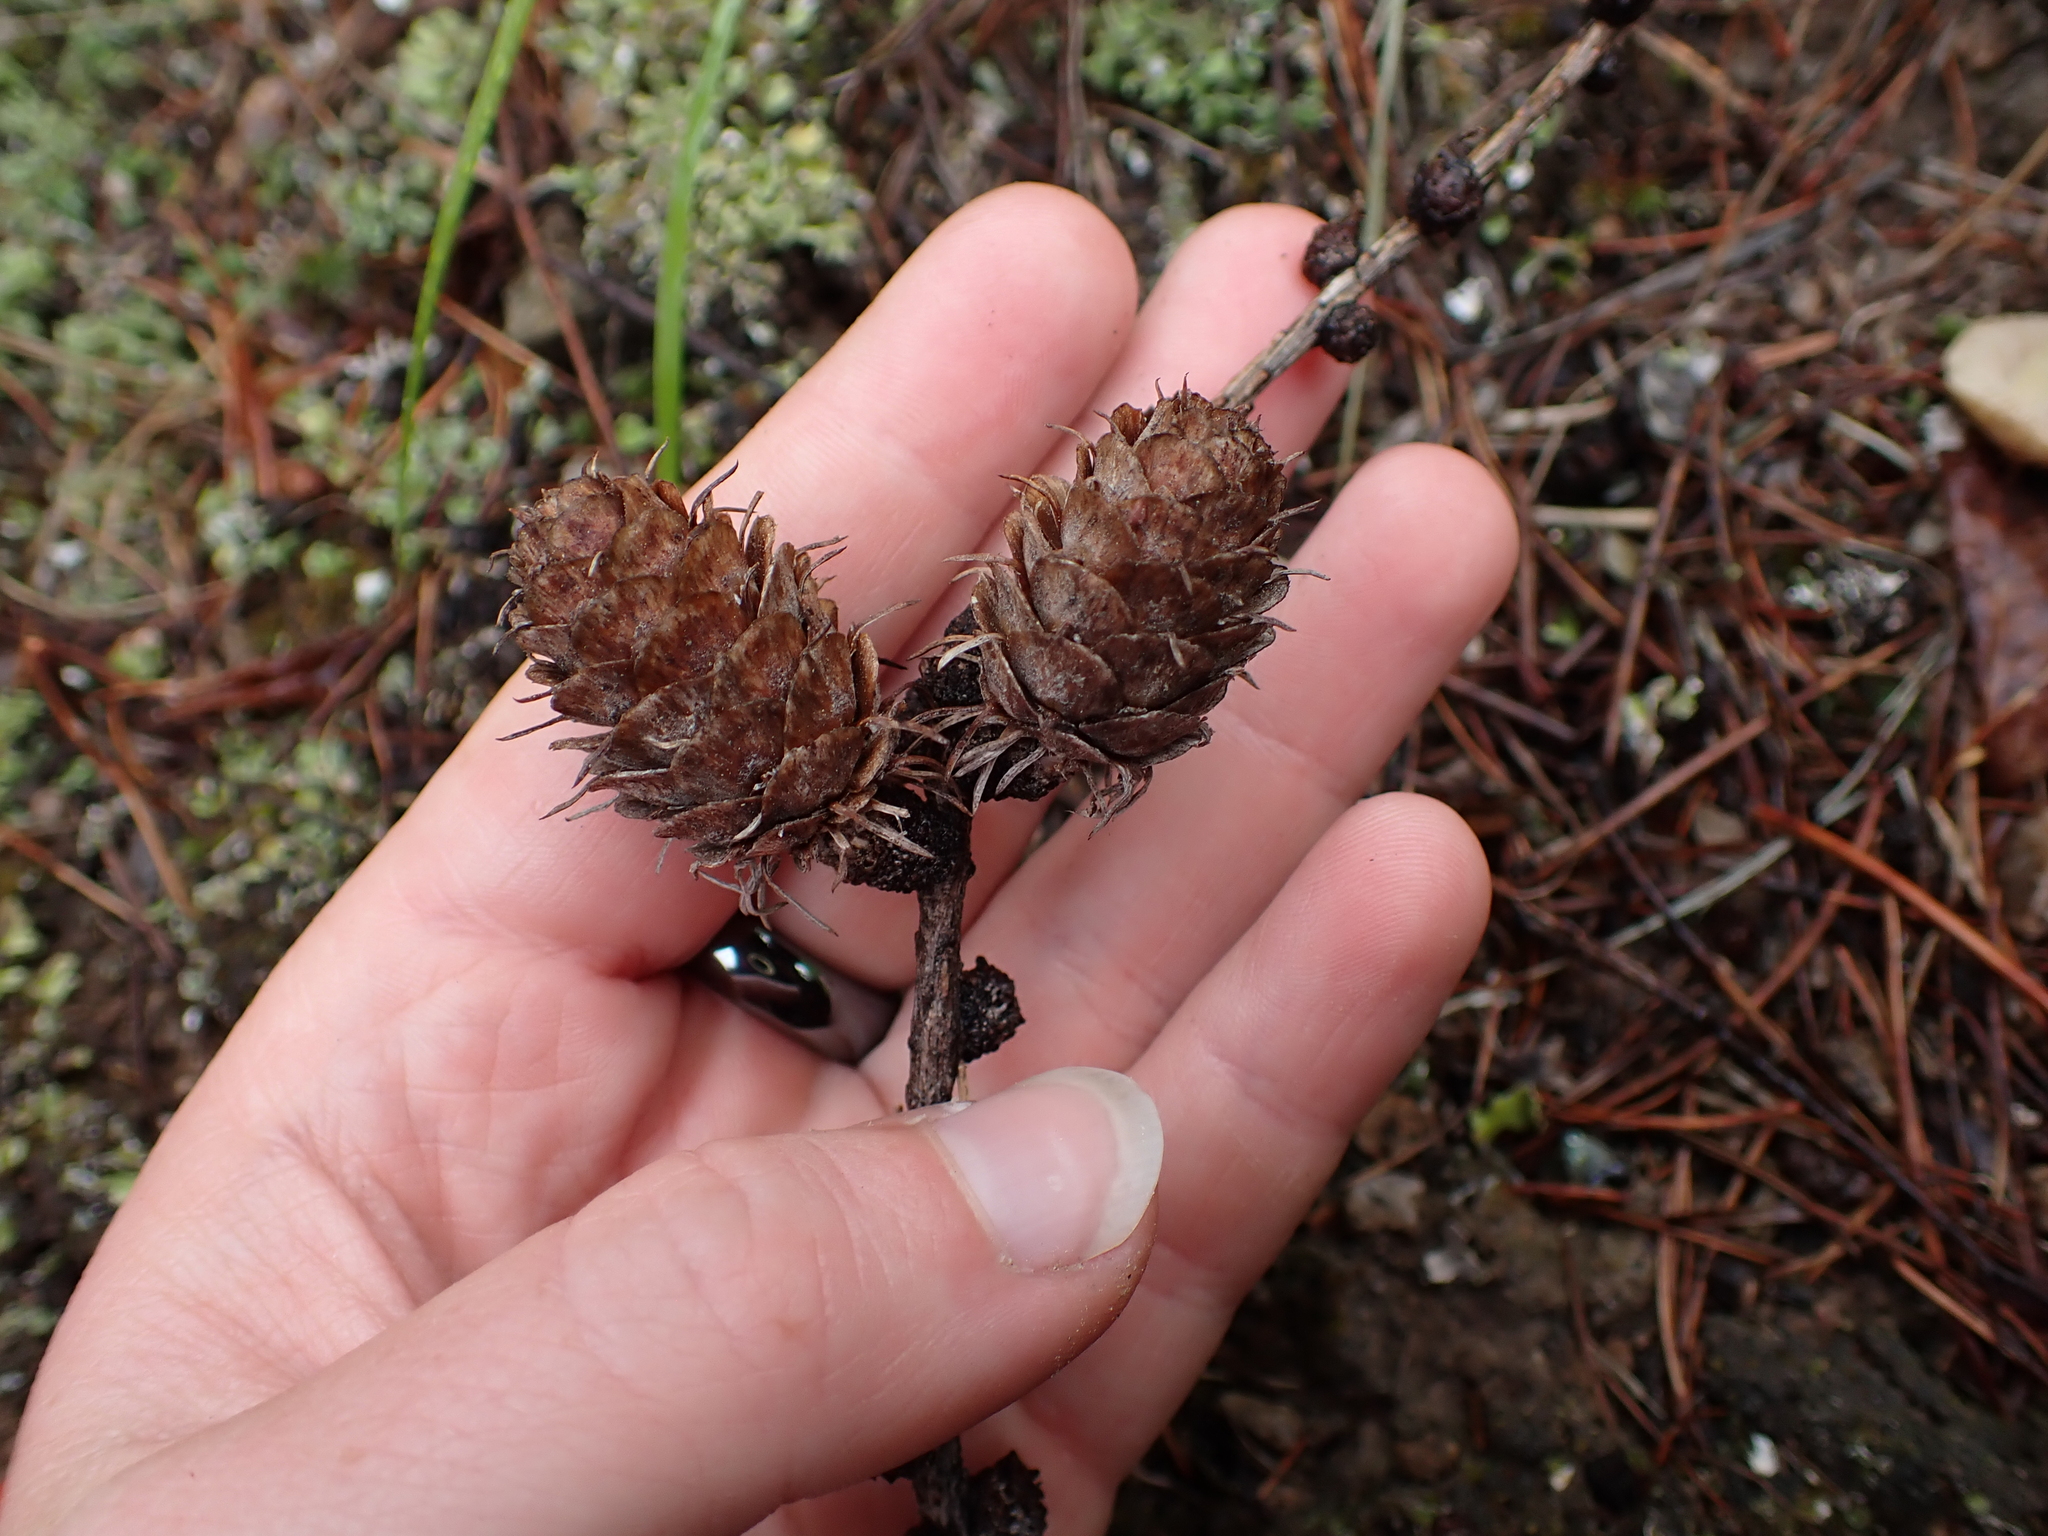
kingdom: Plantae
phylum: Tracheophyta
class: Pinopsida
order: Pinales
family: Pinaceae
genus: Larix
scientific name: Larix occidentalis
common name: Western larch
